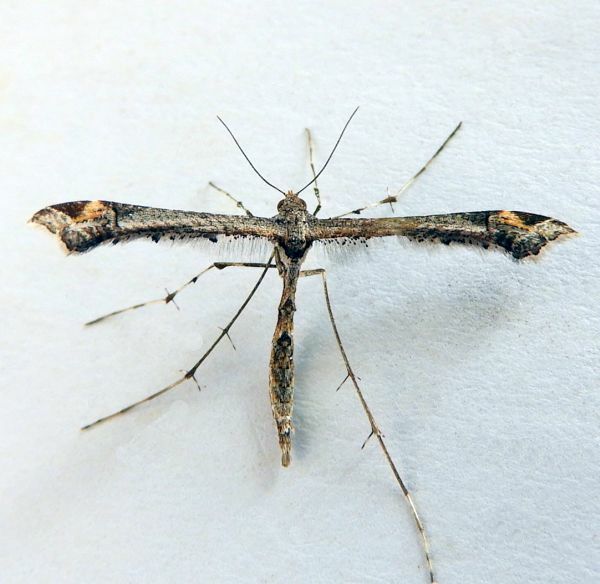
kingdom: Animalia
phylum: Arthropoda
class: Insecta
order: Lepidoptera
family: Pterophoridae
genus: Anstenoptilia
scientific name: Anstenoptilia marmarodactyla
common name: Moth
